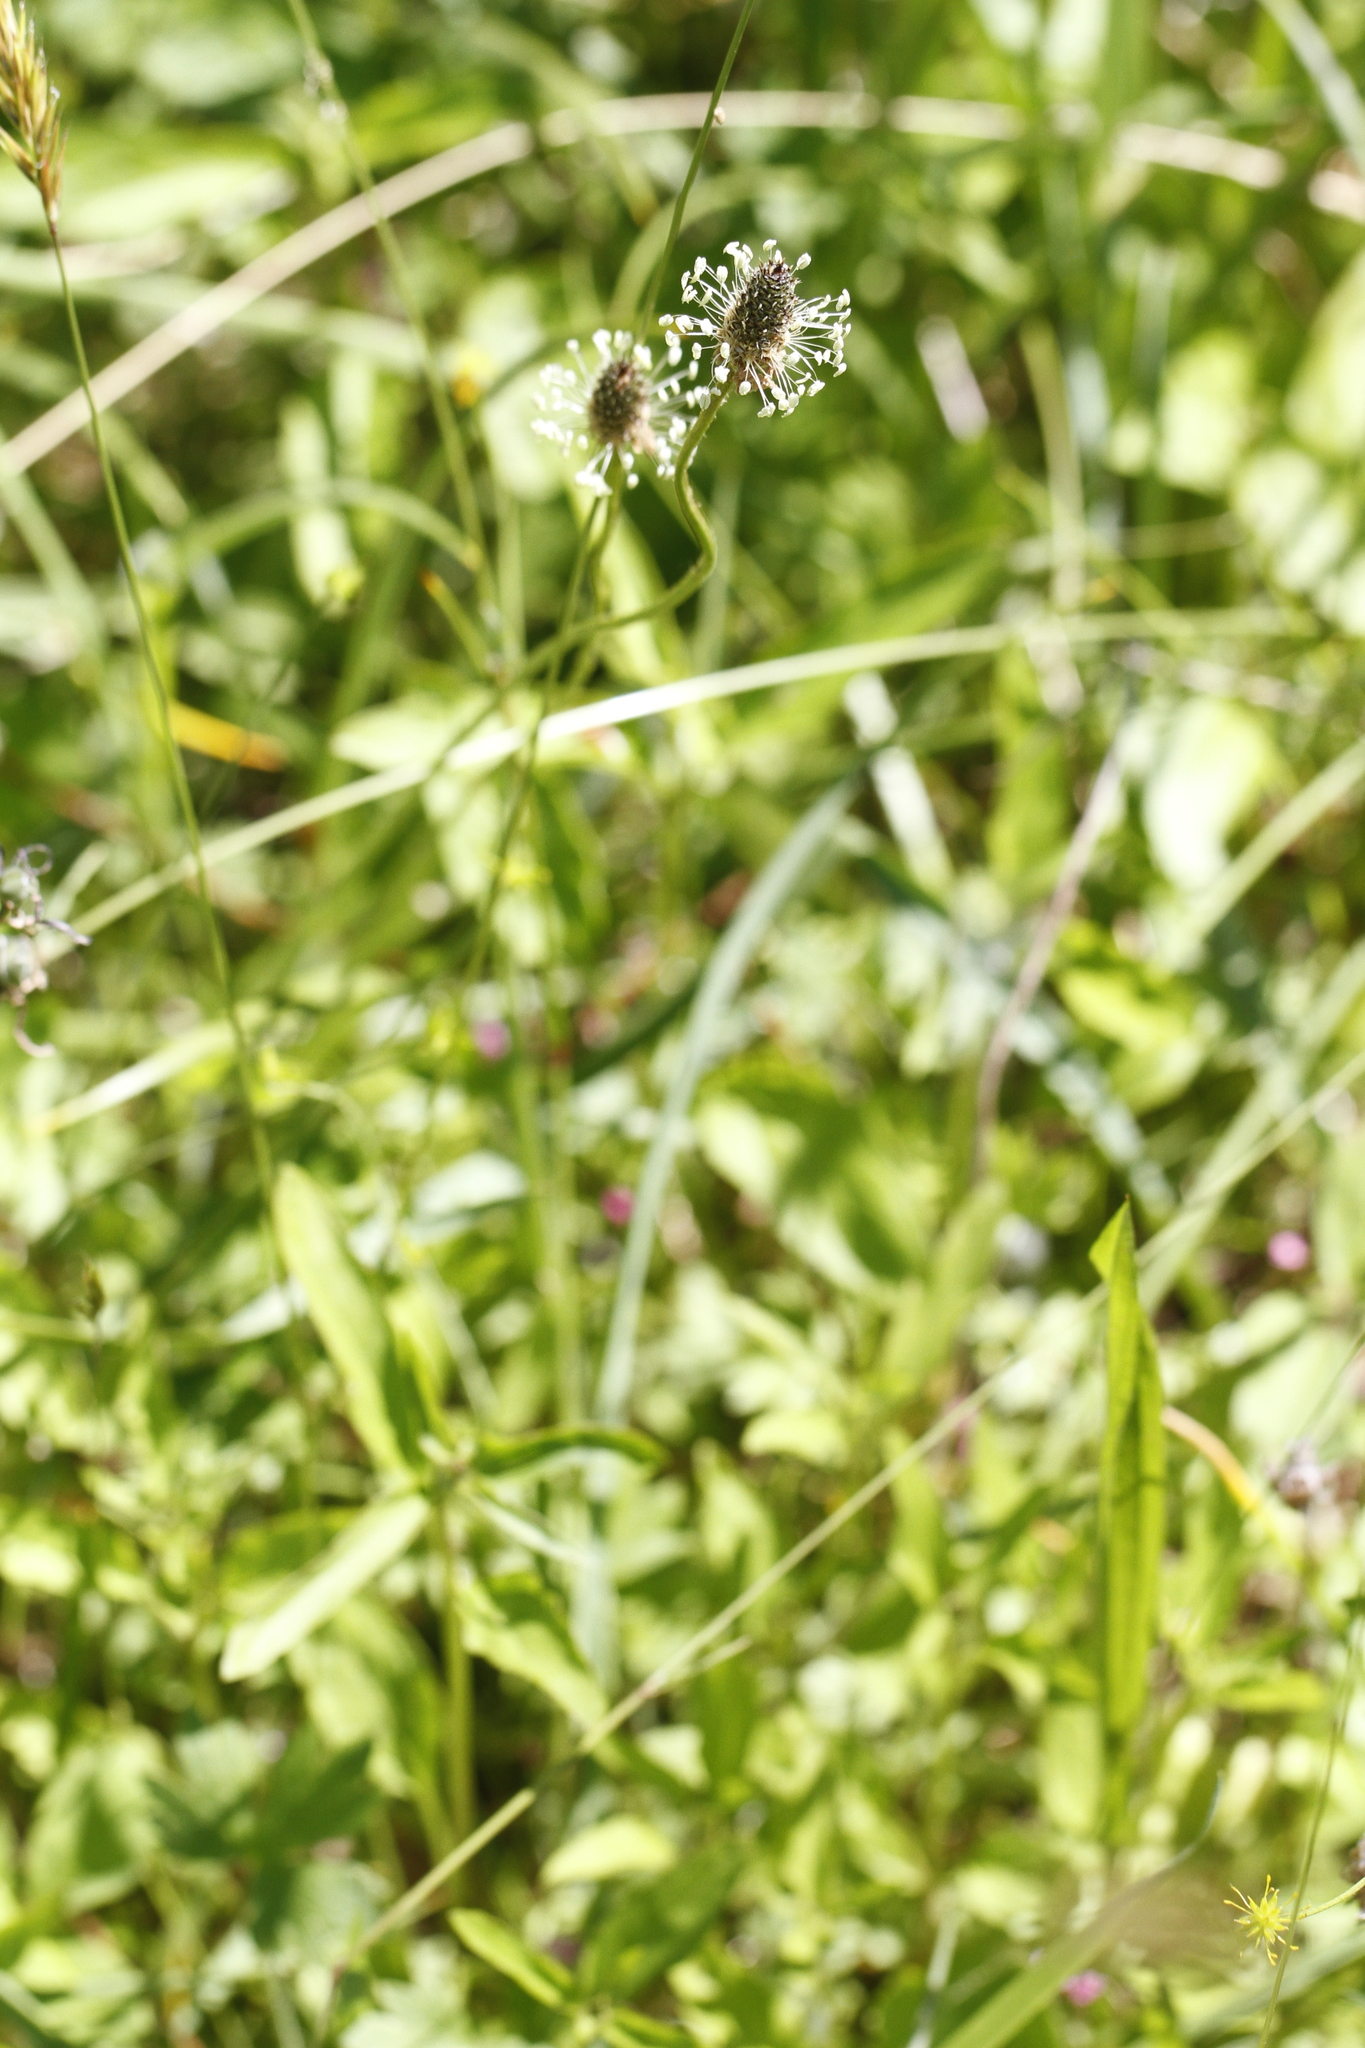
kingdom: Plantae
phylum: Tracheophyta
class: Magnoliopsida
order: Lamiales
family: Plantaginaceae
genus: Plantago
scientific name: Plantago lanceolata
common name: Ribwort plantain
